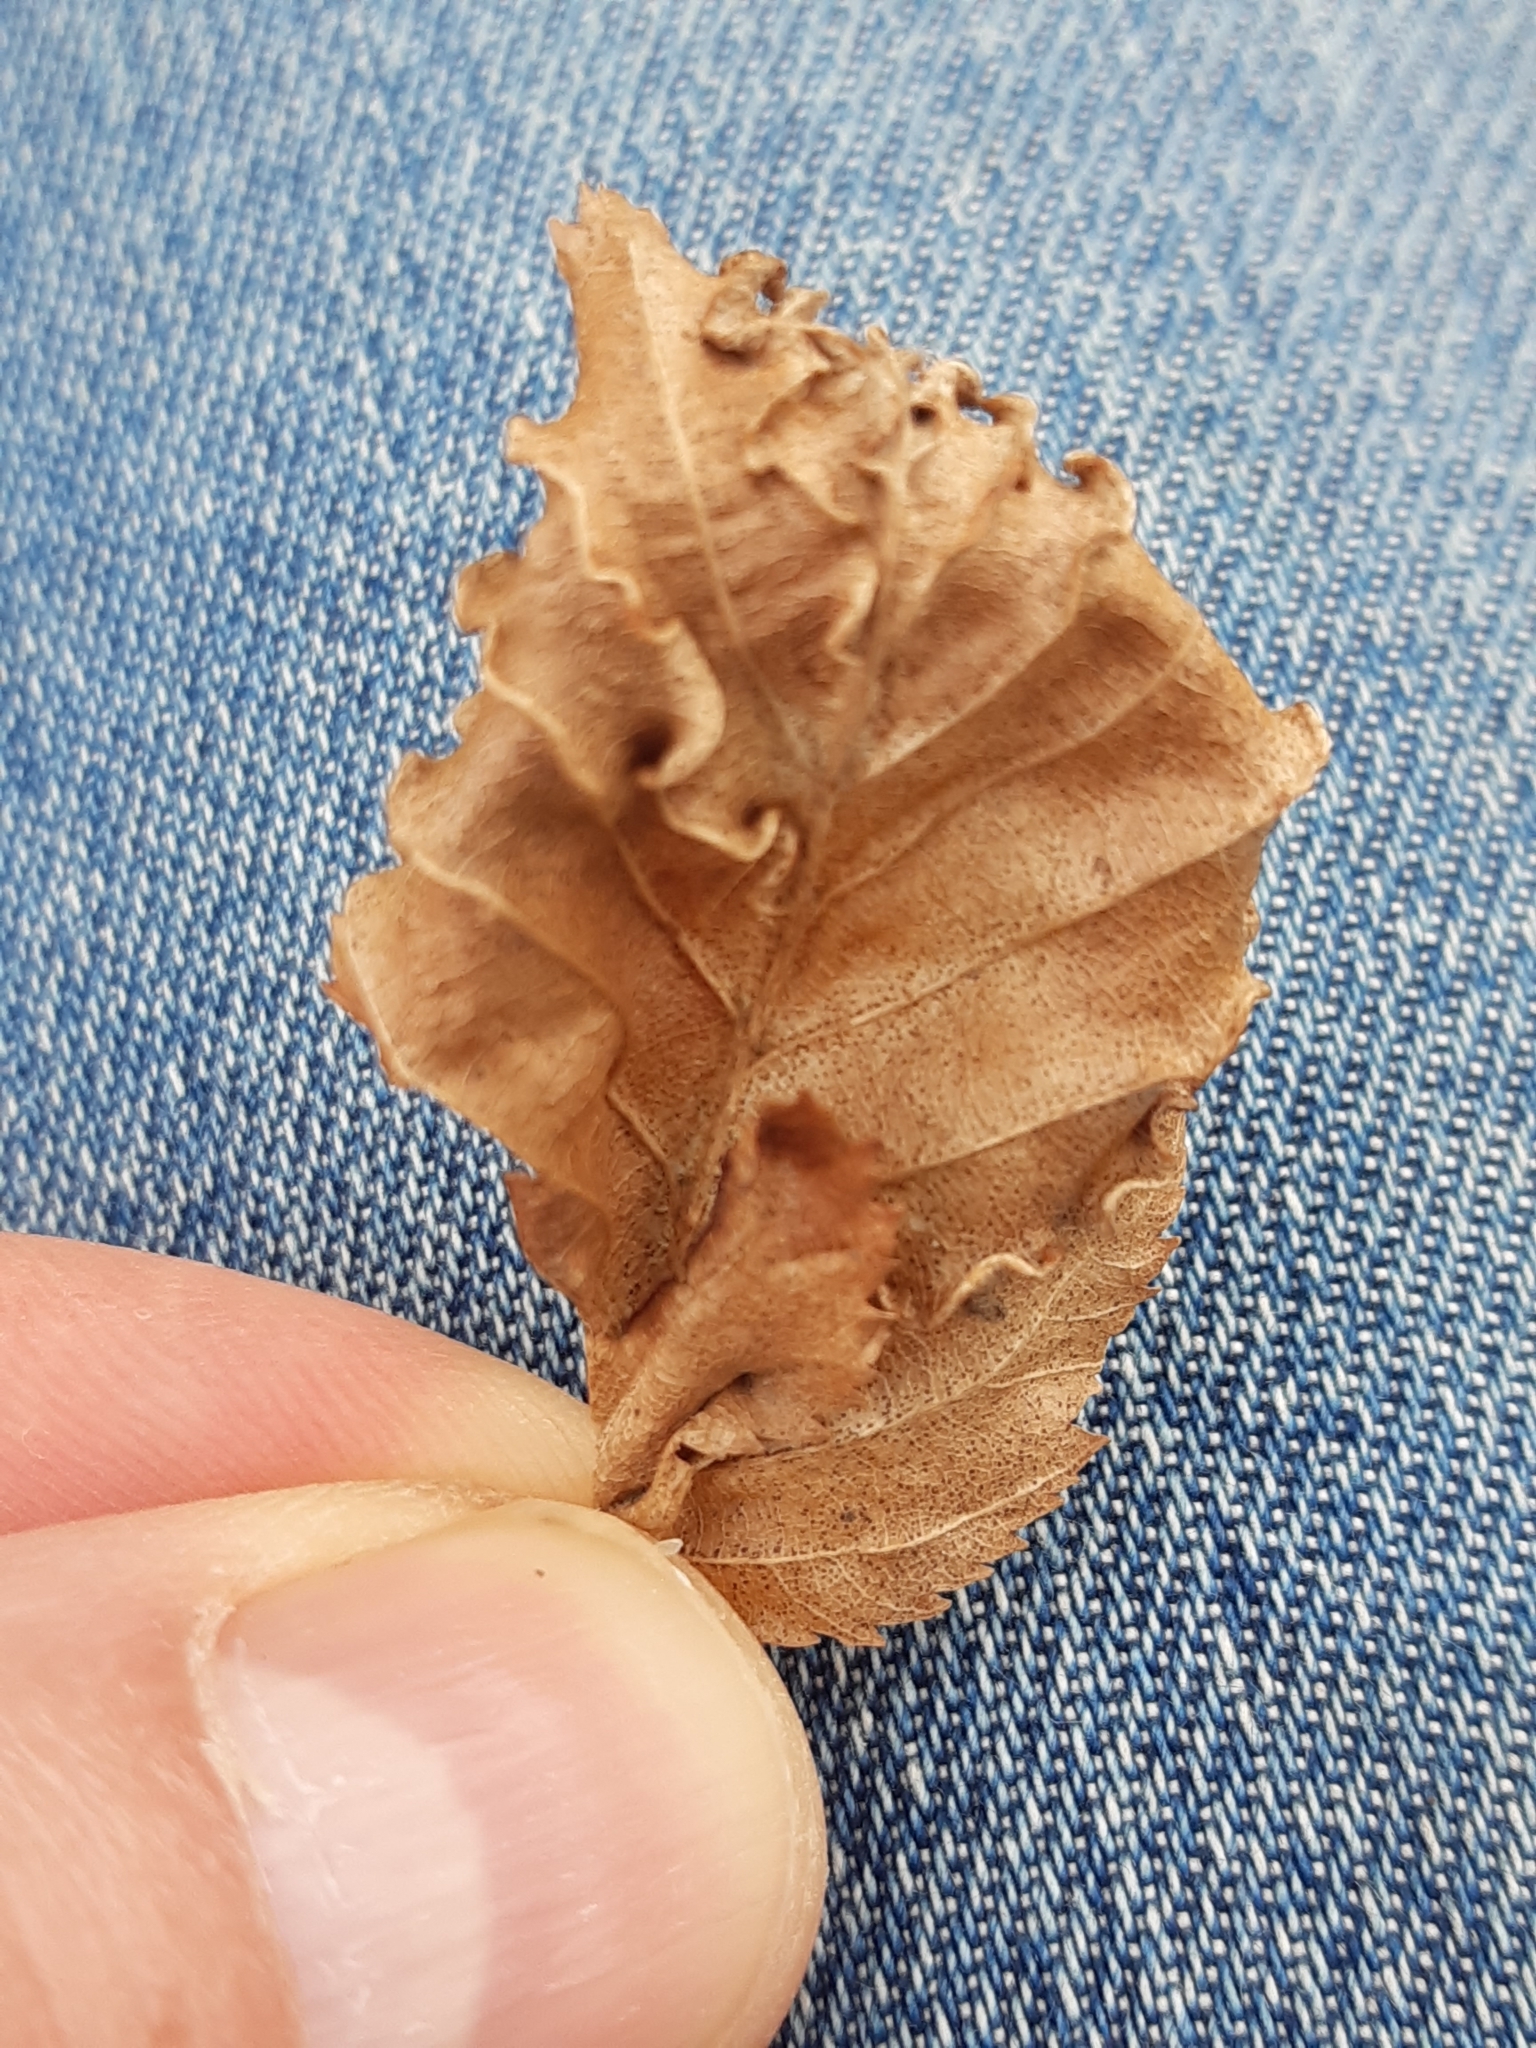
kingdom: Animalia
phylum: Arthropoda
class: Arachnida
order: Trombidiformes
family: Eriophyidae
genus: Aculops
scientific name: Aculops macrotrichus
